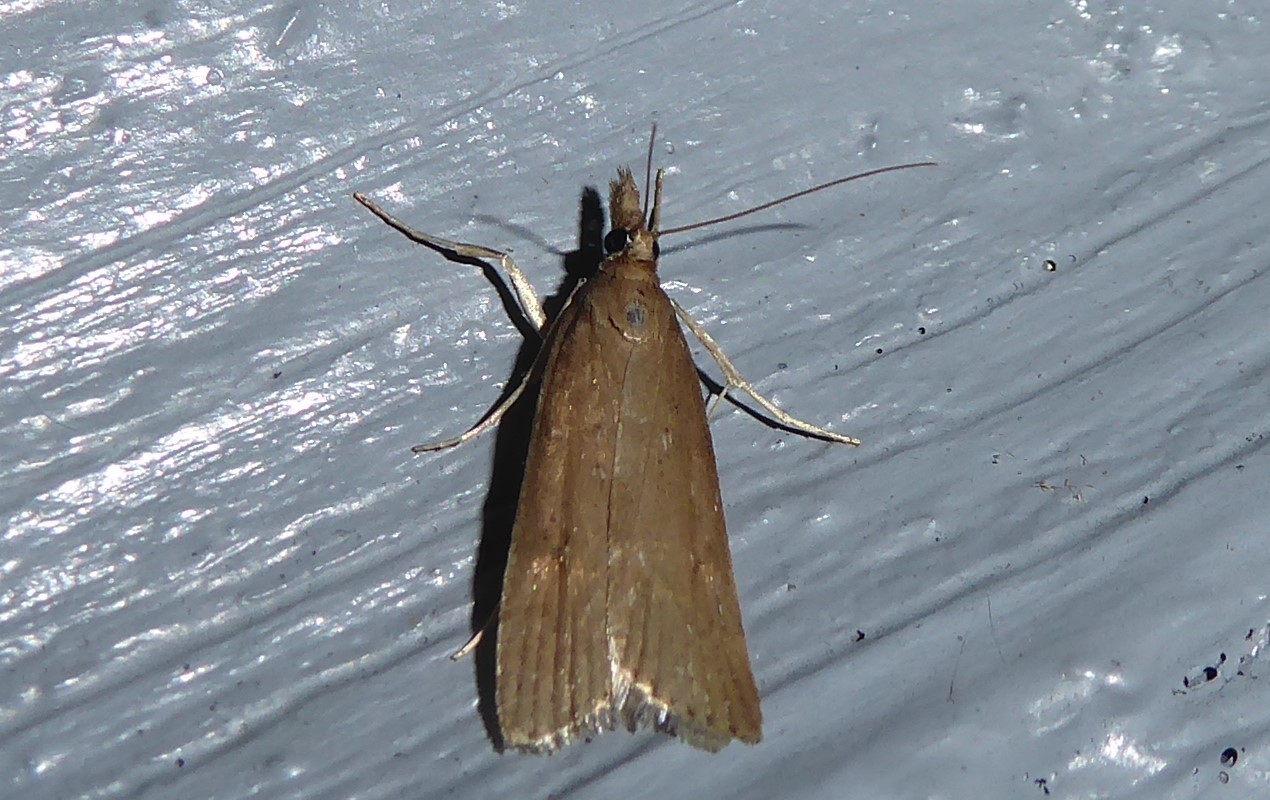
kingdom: Animalia
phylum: Arthropoda
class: Insecta
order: Lepidoptera
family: Crambidae
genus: Eudonia
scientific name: Eudonia sabulosella
